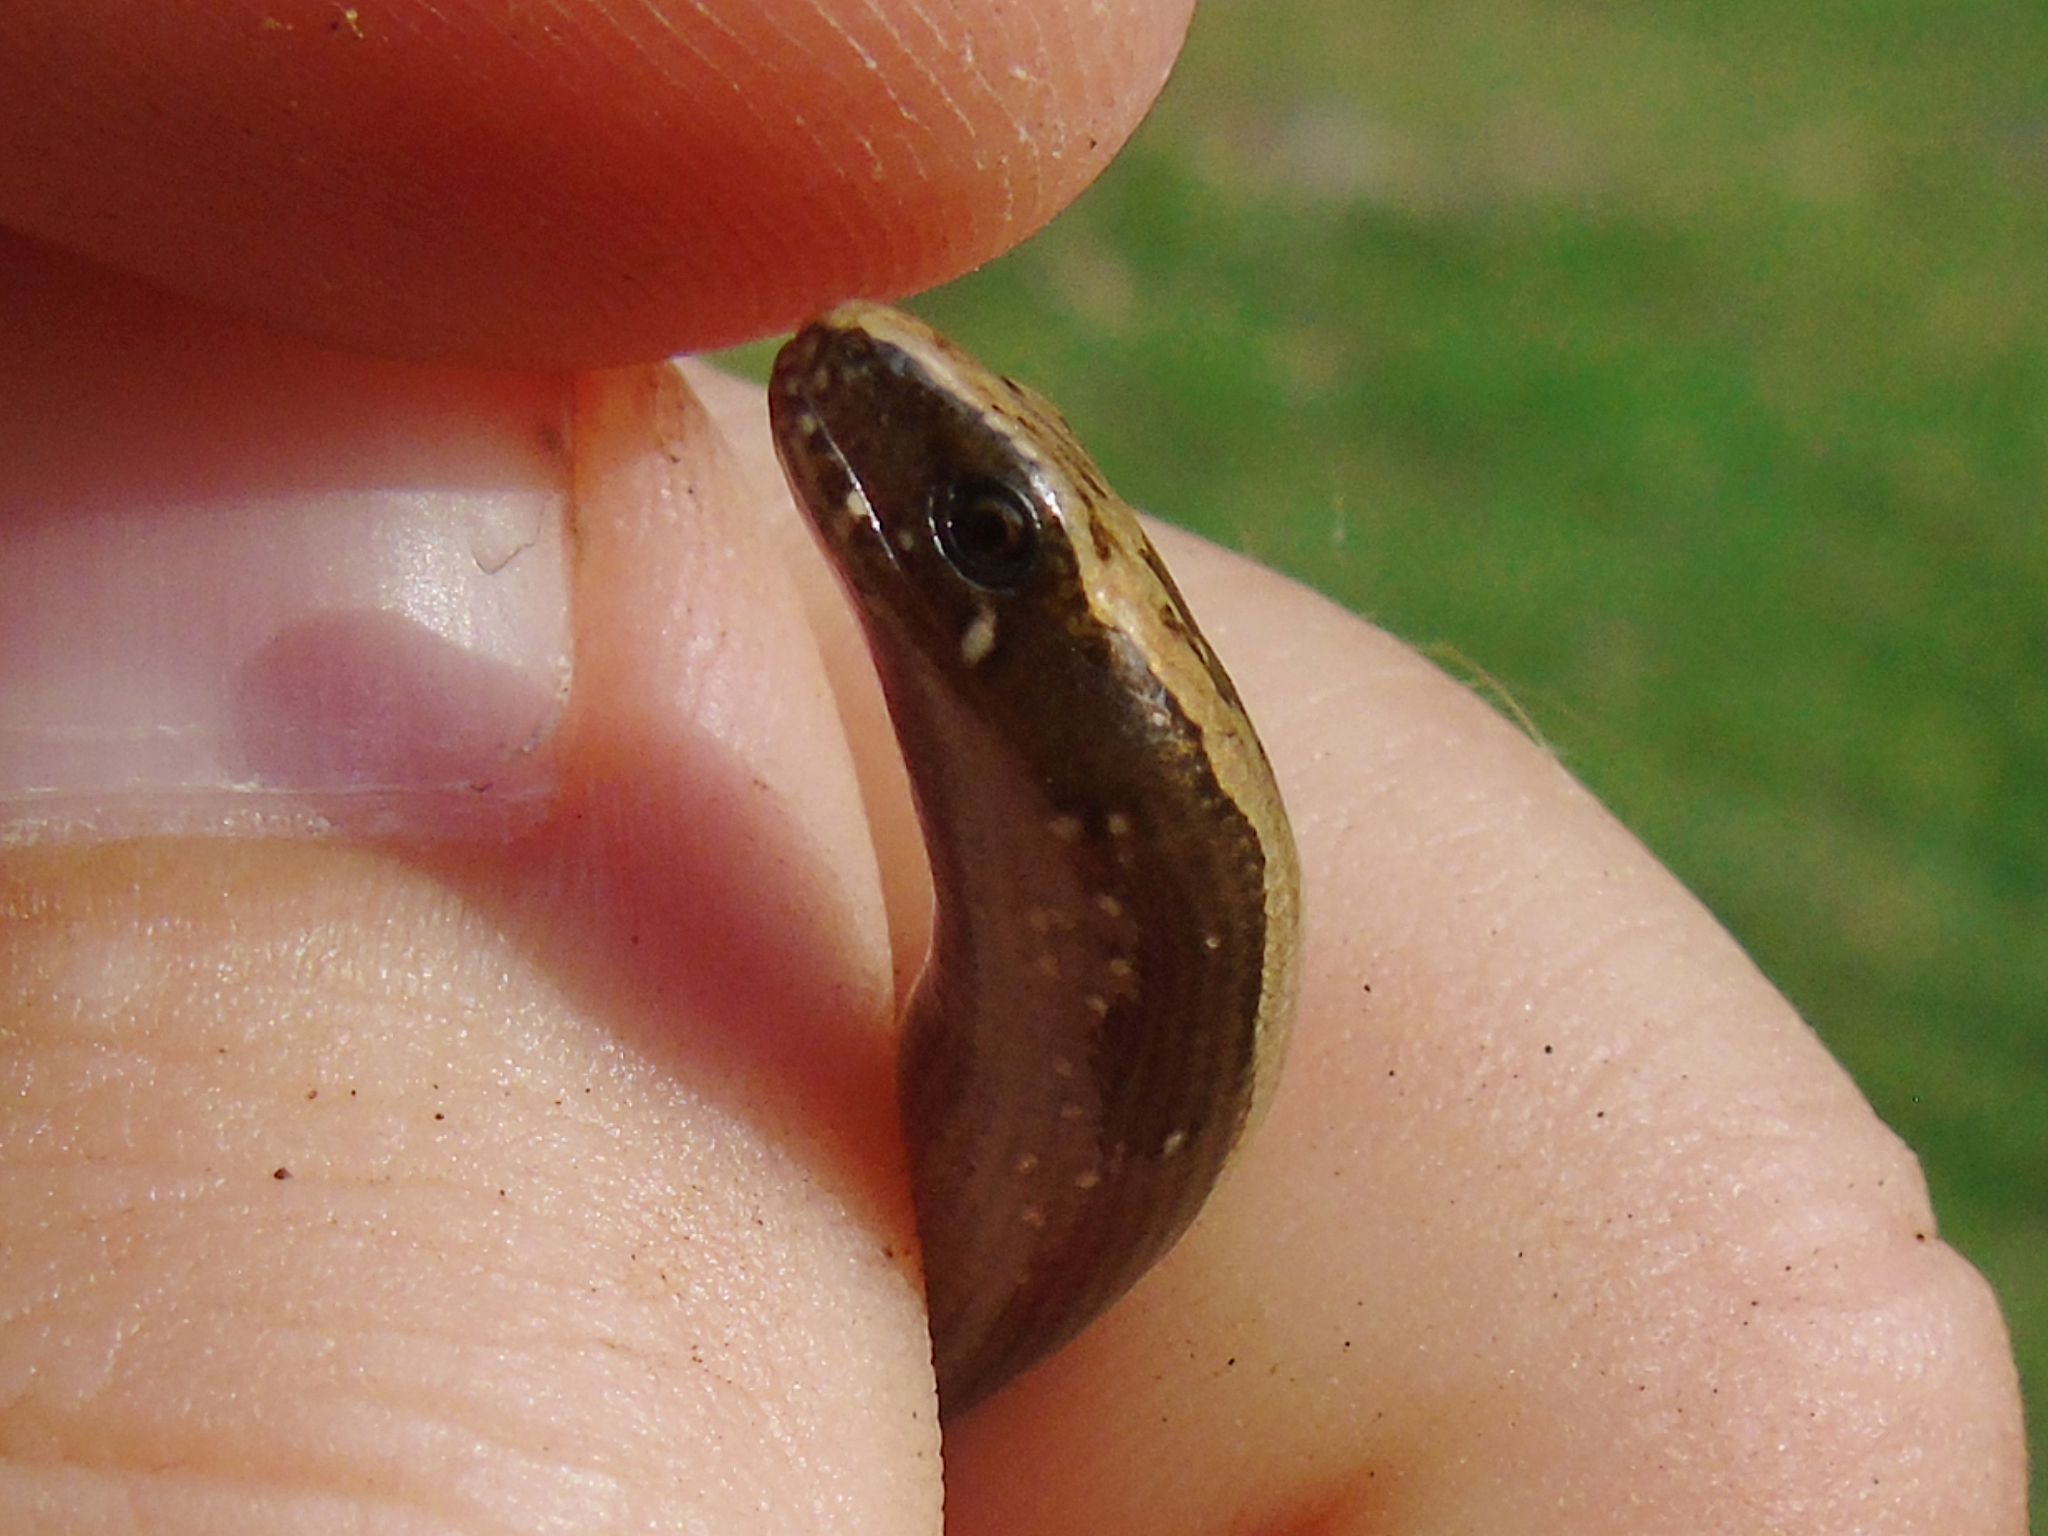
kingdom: Animalia
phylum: Chordata
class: Squamata
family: Anguidae
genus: Anguis
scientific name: Anguis colchica
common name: Slow worm
